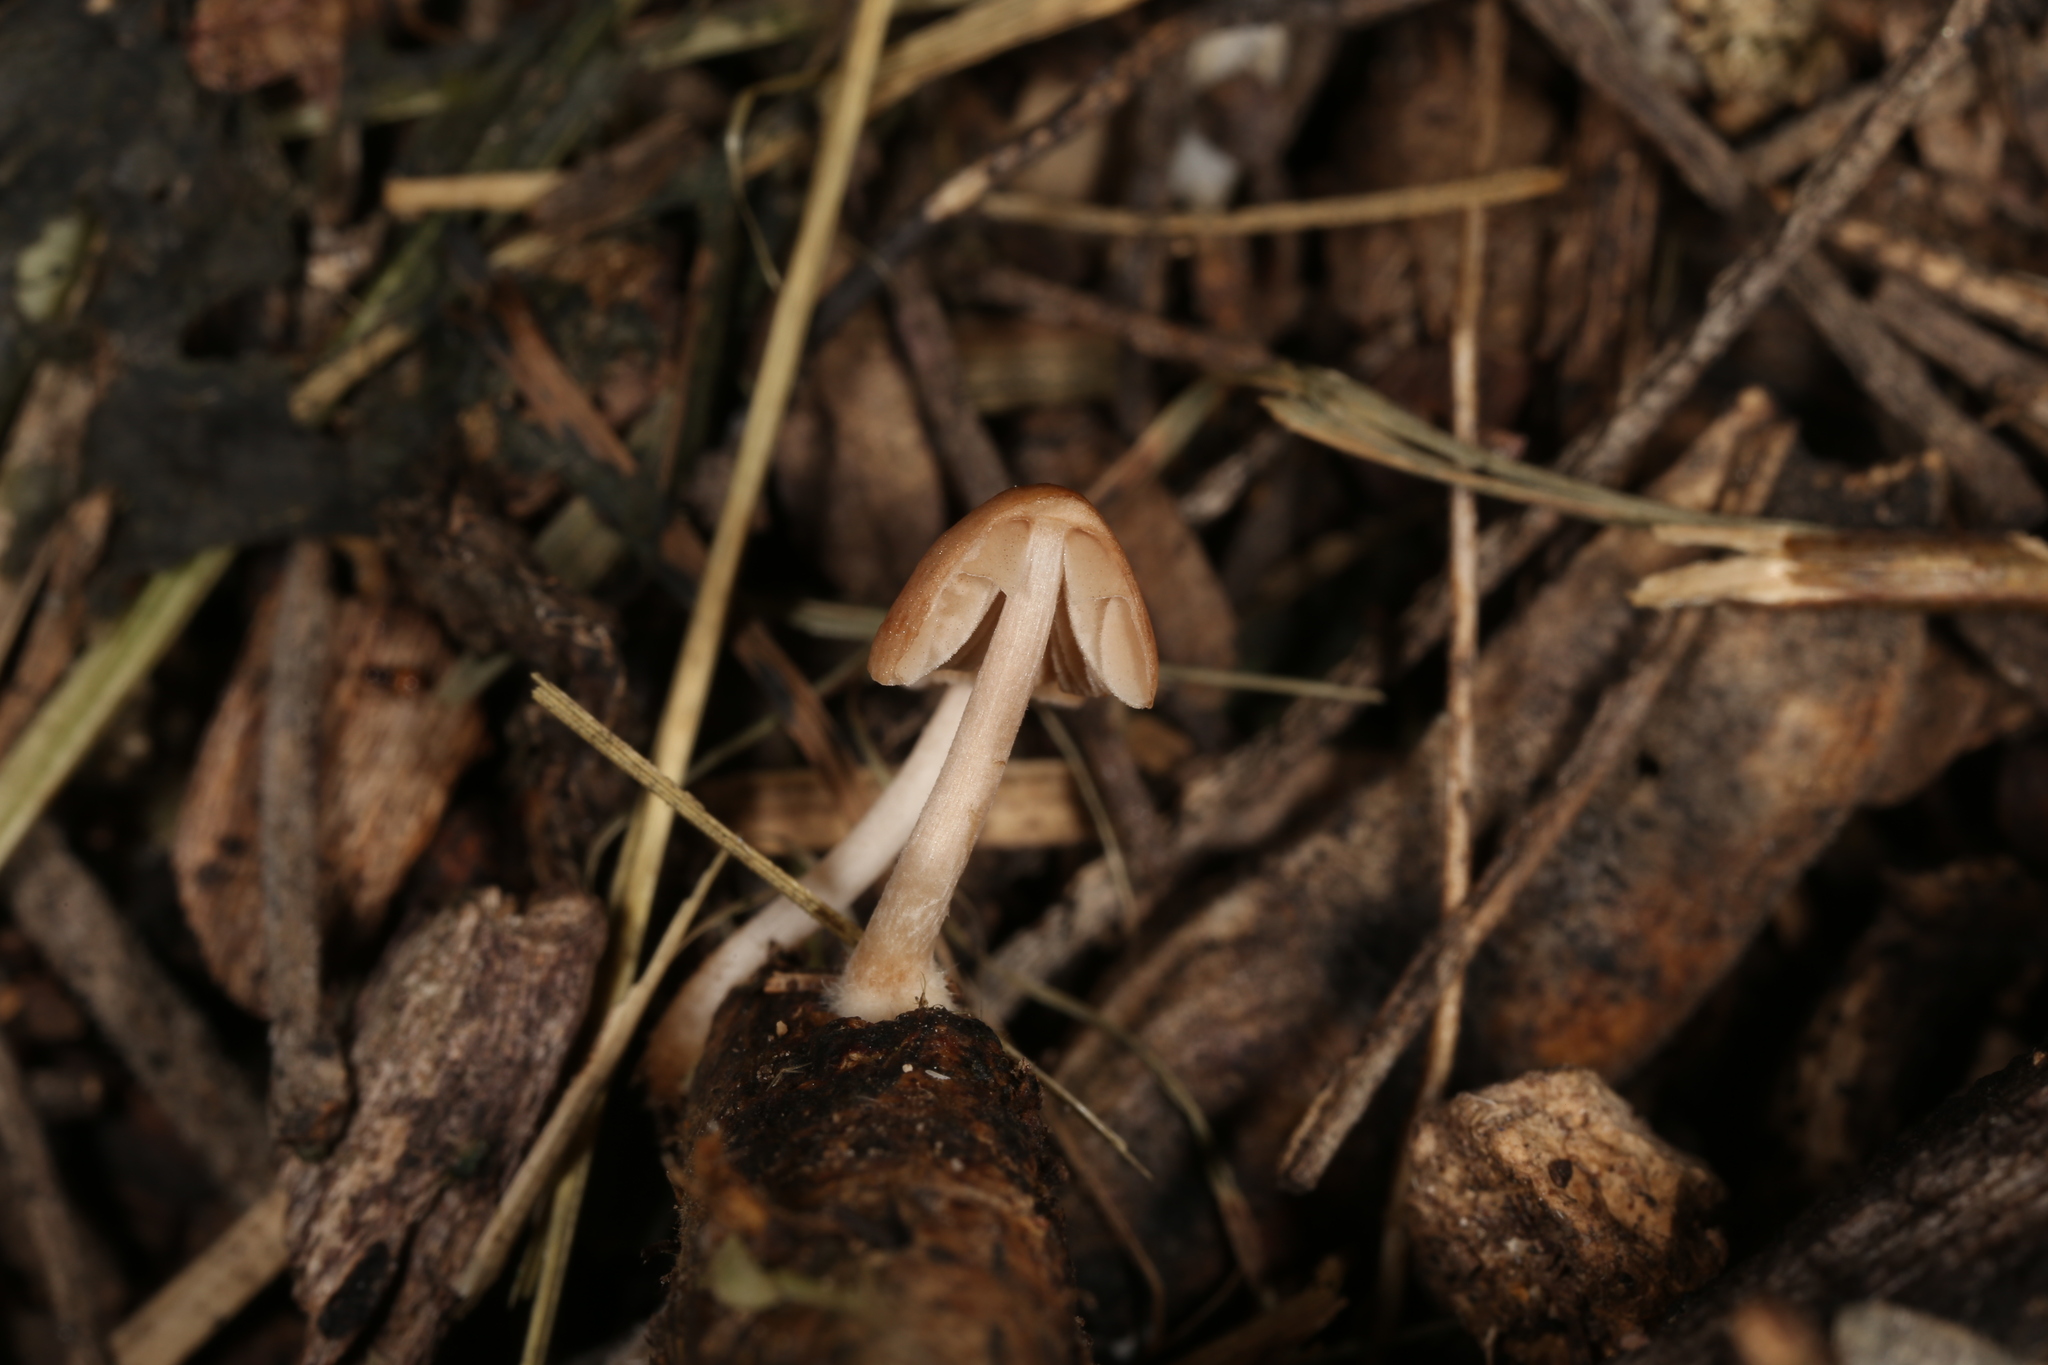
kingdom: Fungi
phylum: Basidiomycota
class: Agaricomycetes
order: Agaricales
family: Psathyrellaceae
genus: Parasola
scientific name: Parasola psathyrelloides
